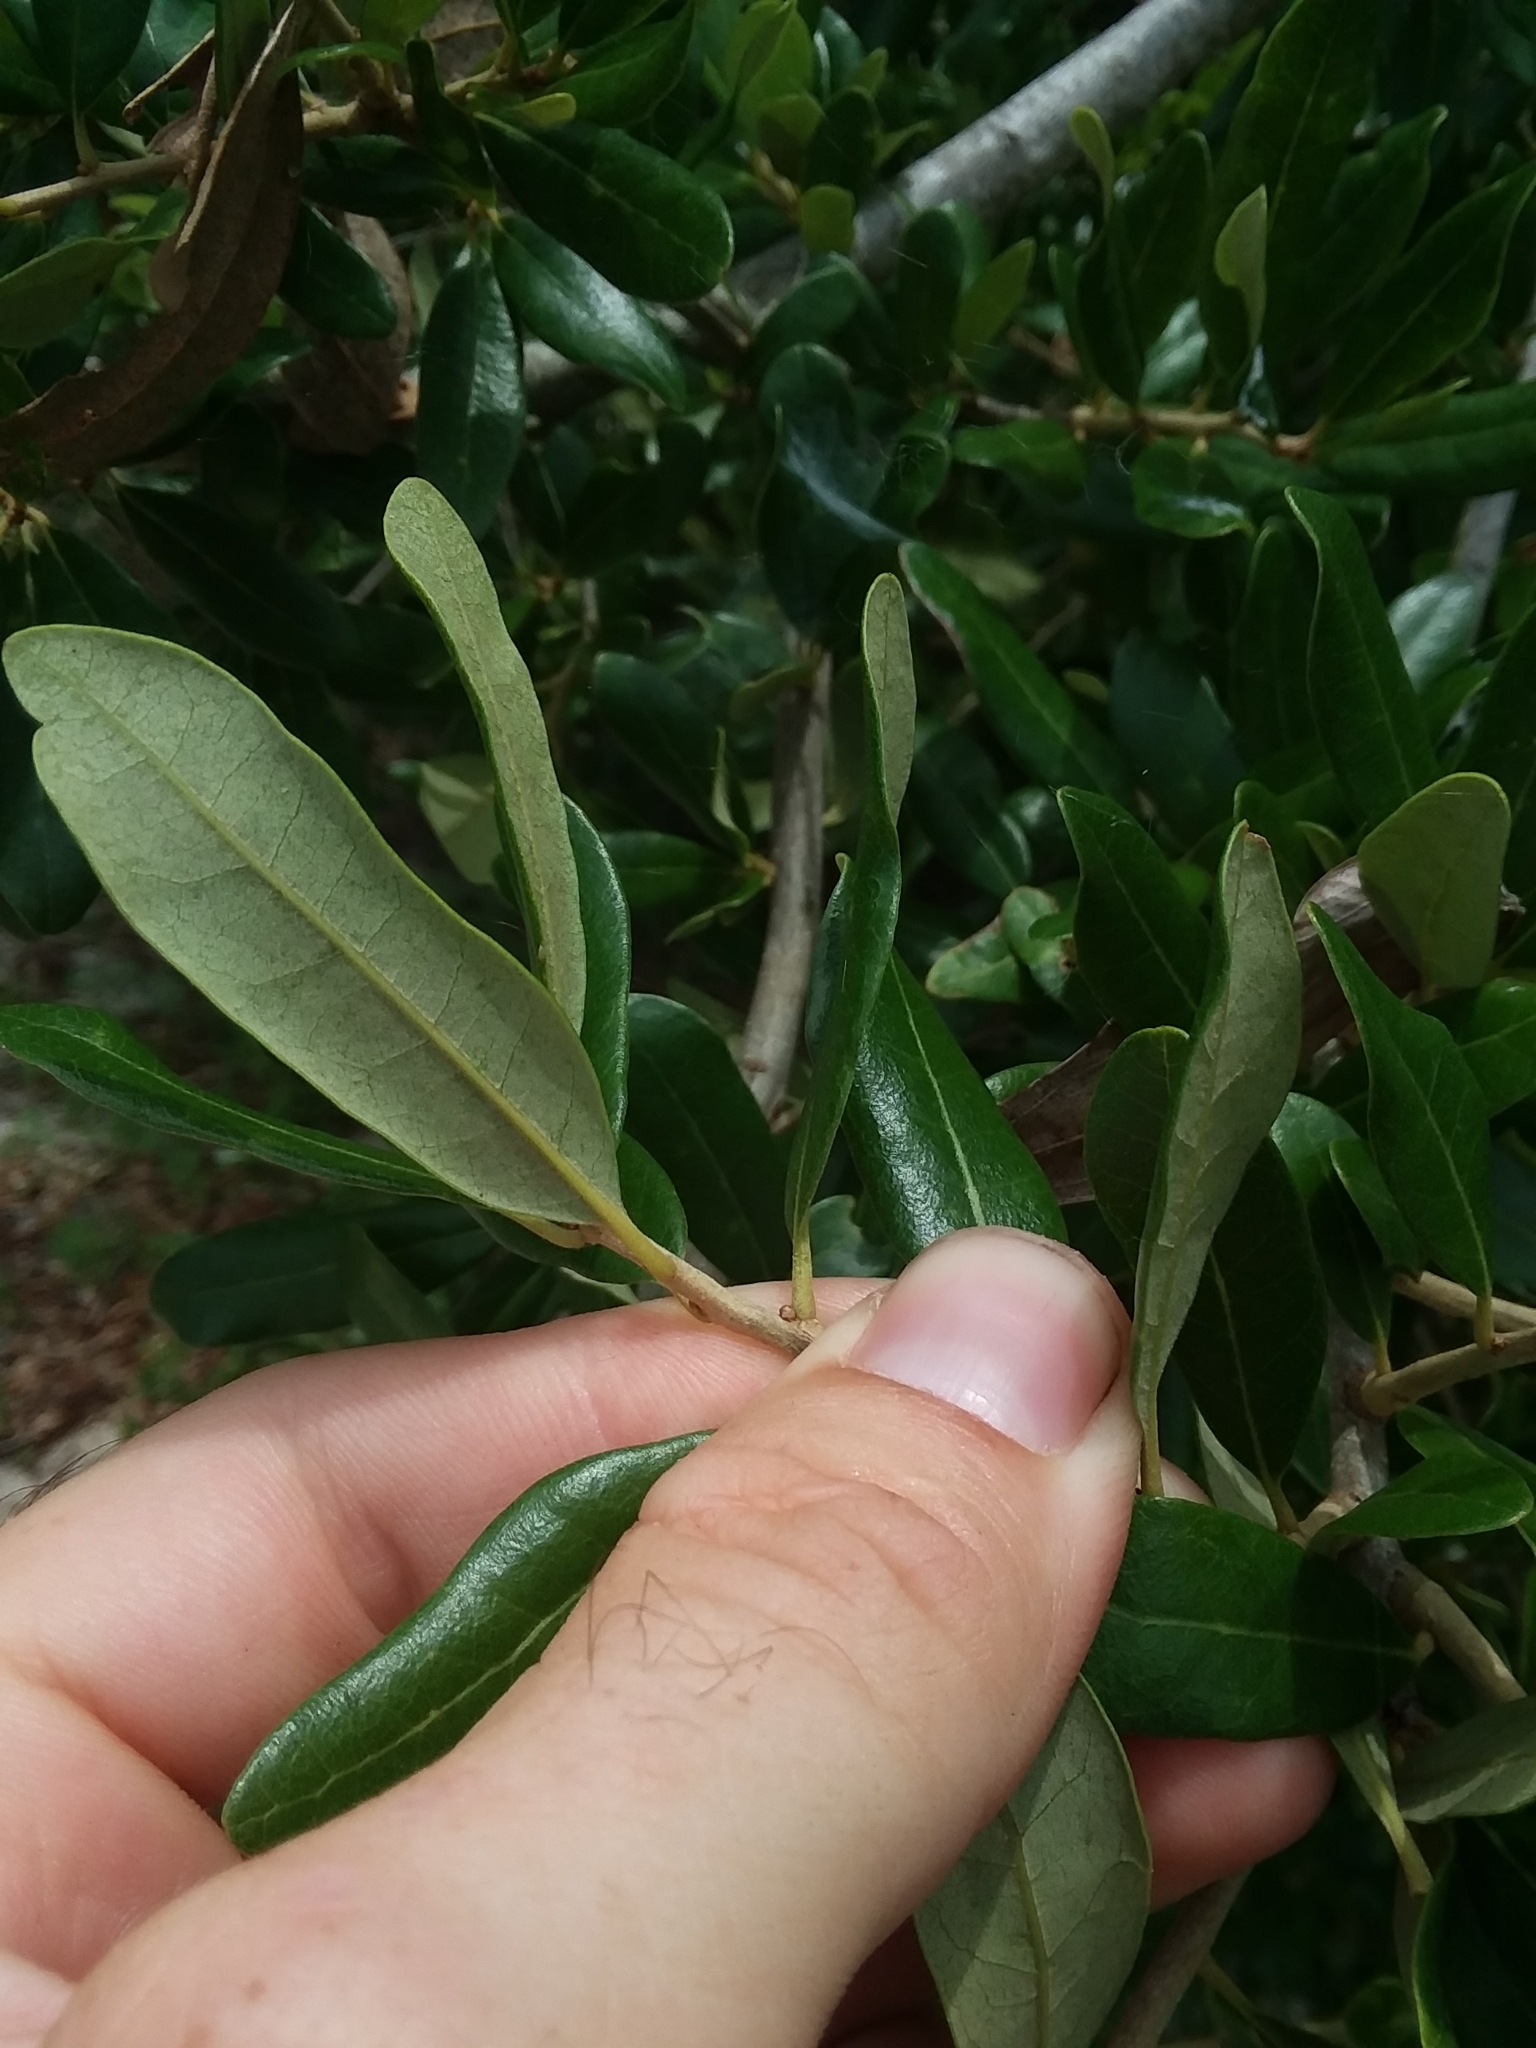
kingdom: Plantae
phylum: Tracheophyta
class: Magnoliopsida
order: Fagales
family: Fagaceae
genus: Quercus
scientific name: Quercus virginiana
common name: Southern live oak
